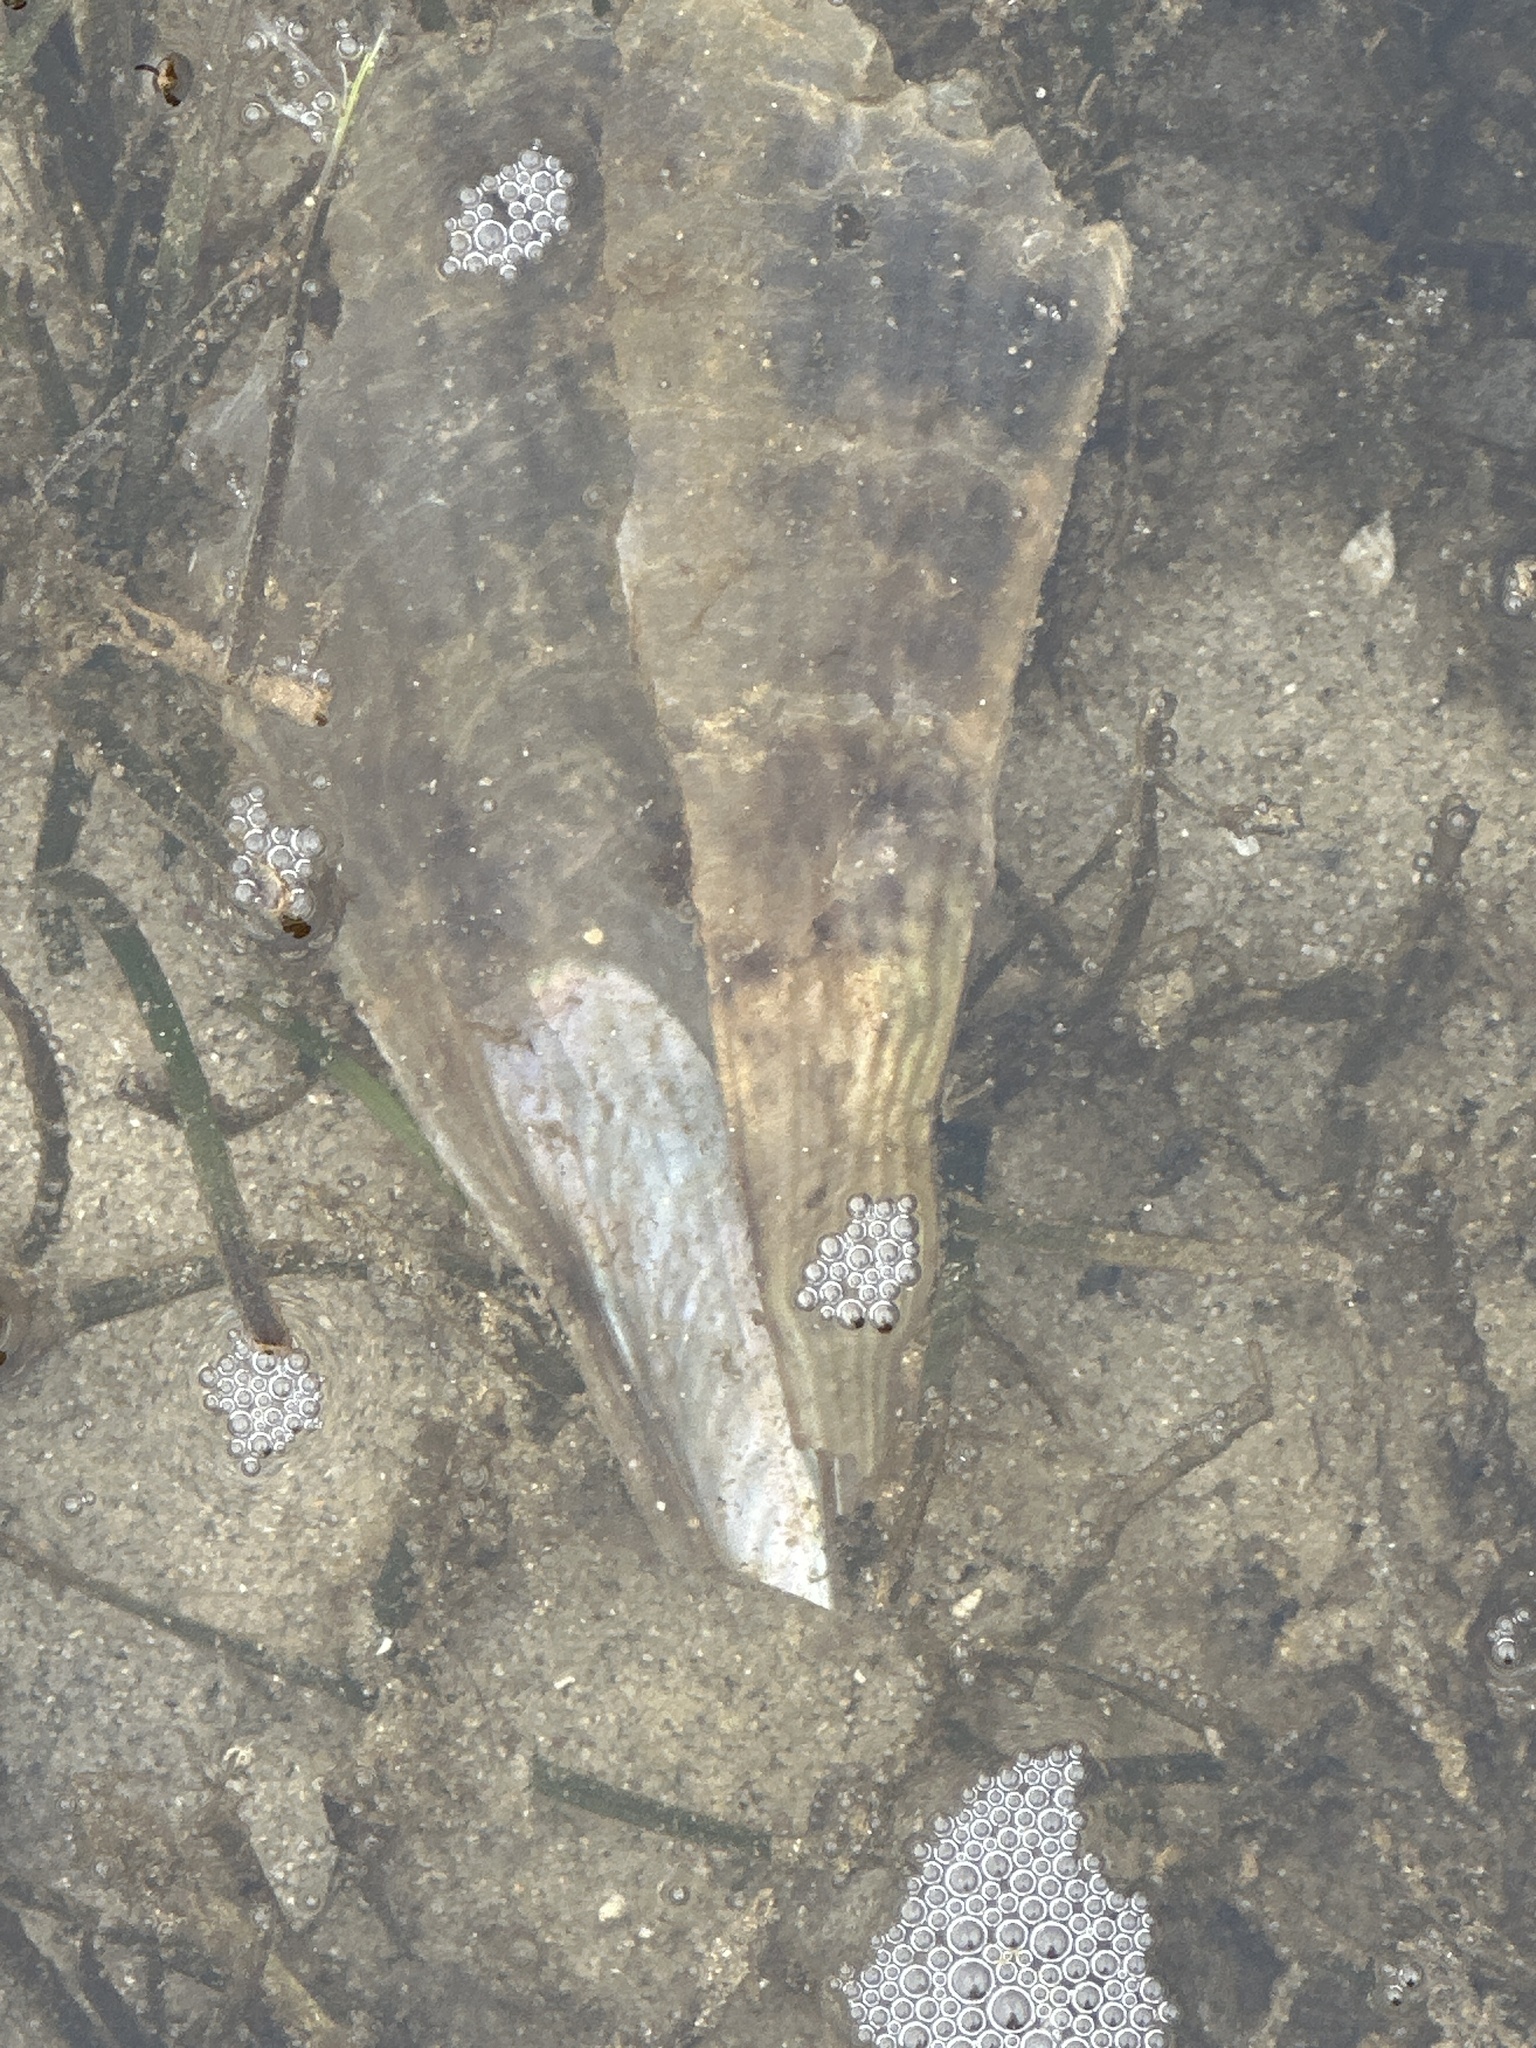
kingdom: Animalia
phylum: Mollusca
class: Bivalvia
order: Ostreida
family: Pinnidae
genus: Pinna
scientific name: Pinna bicolor
